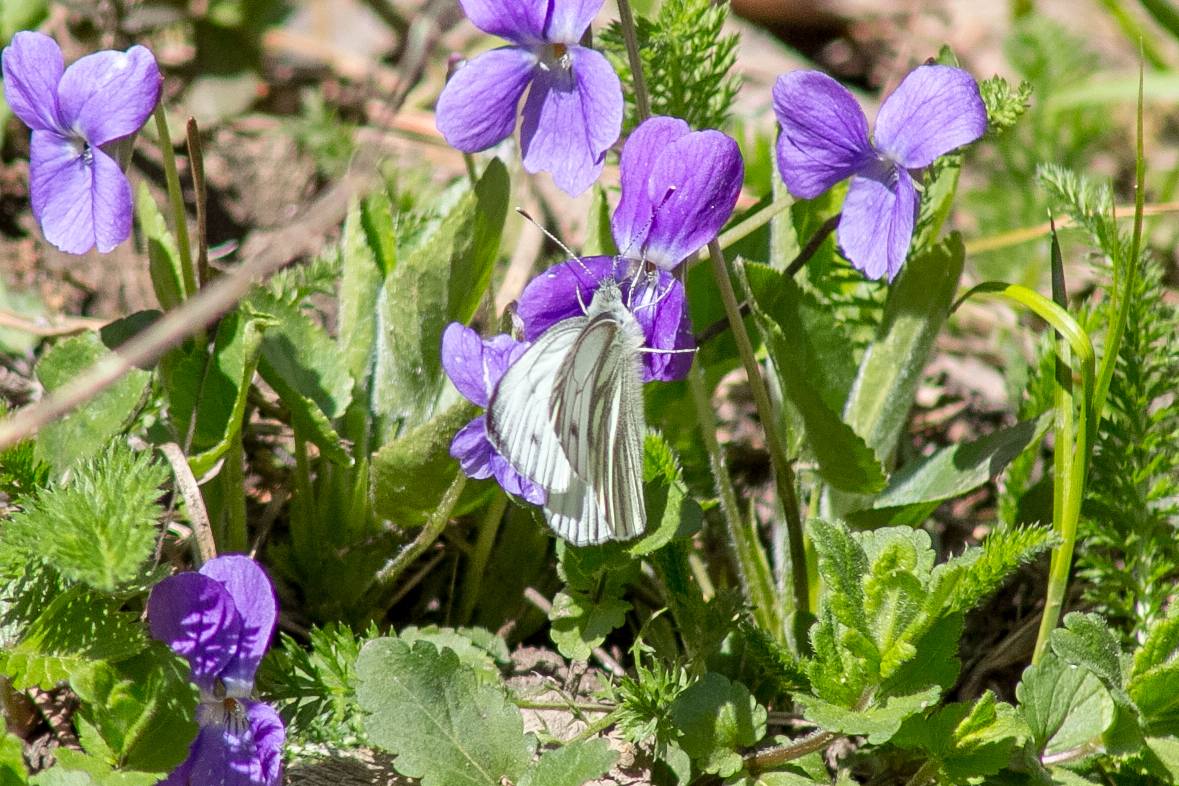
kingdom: Animalia
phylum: Arthropoda
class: Insecta
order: Lepidoptera
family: Pieridae
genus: Pieris
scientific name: Pieris napi
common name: Green-veined white
